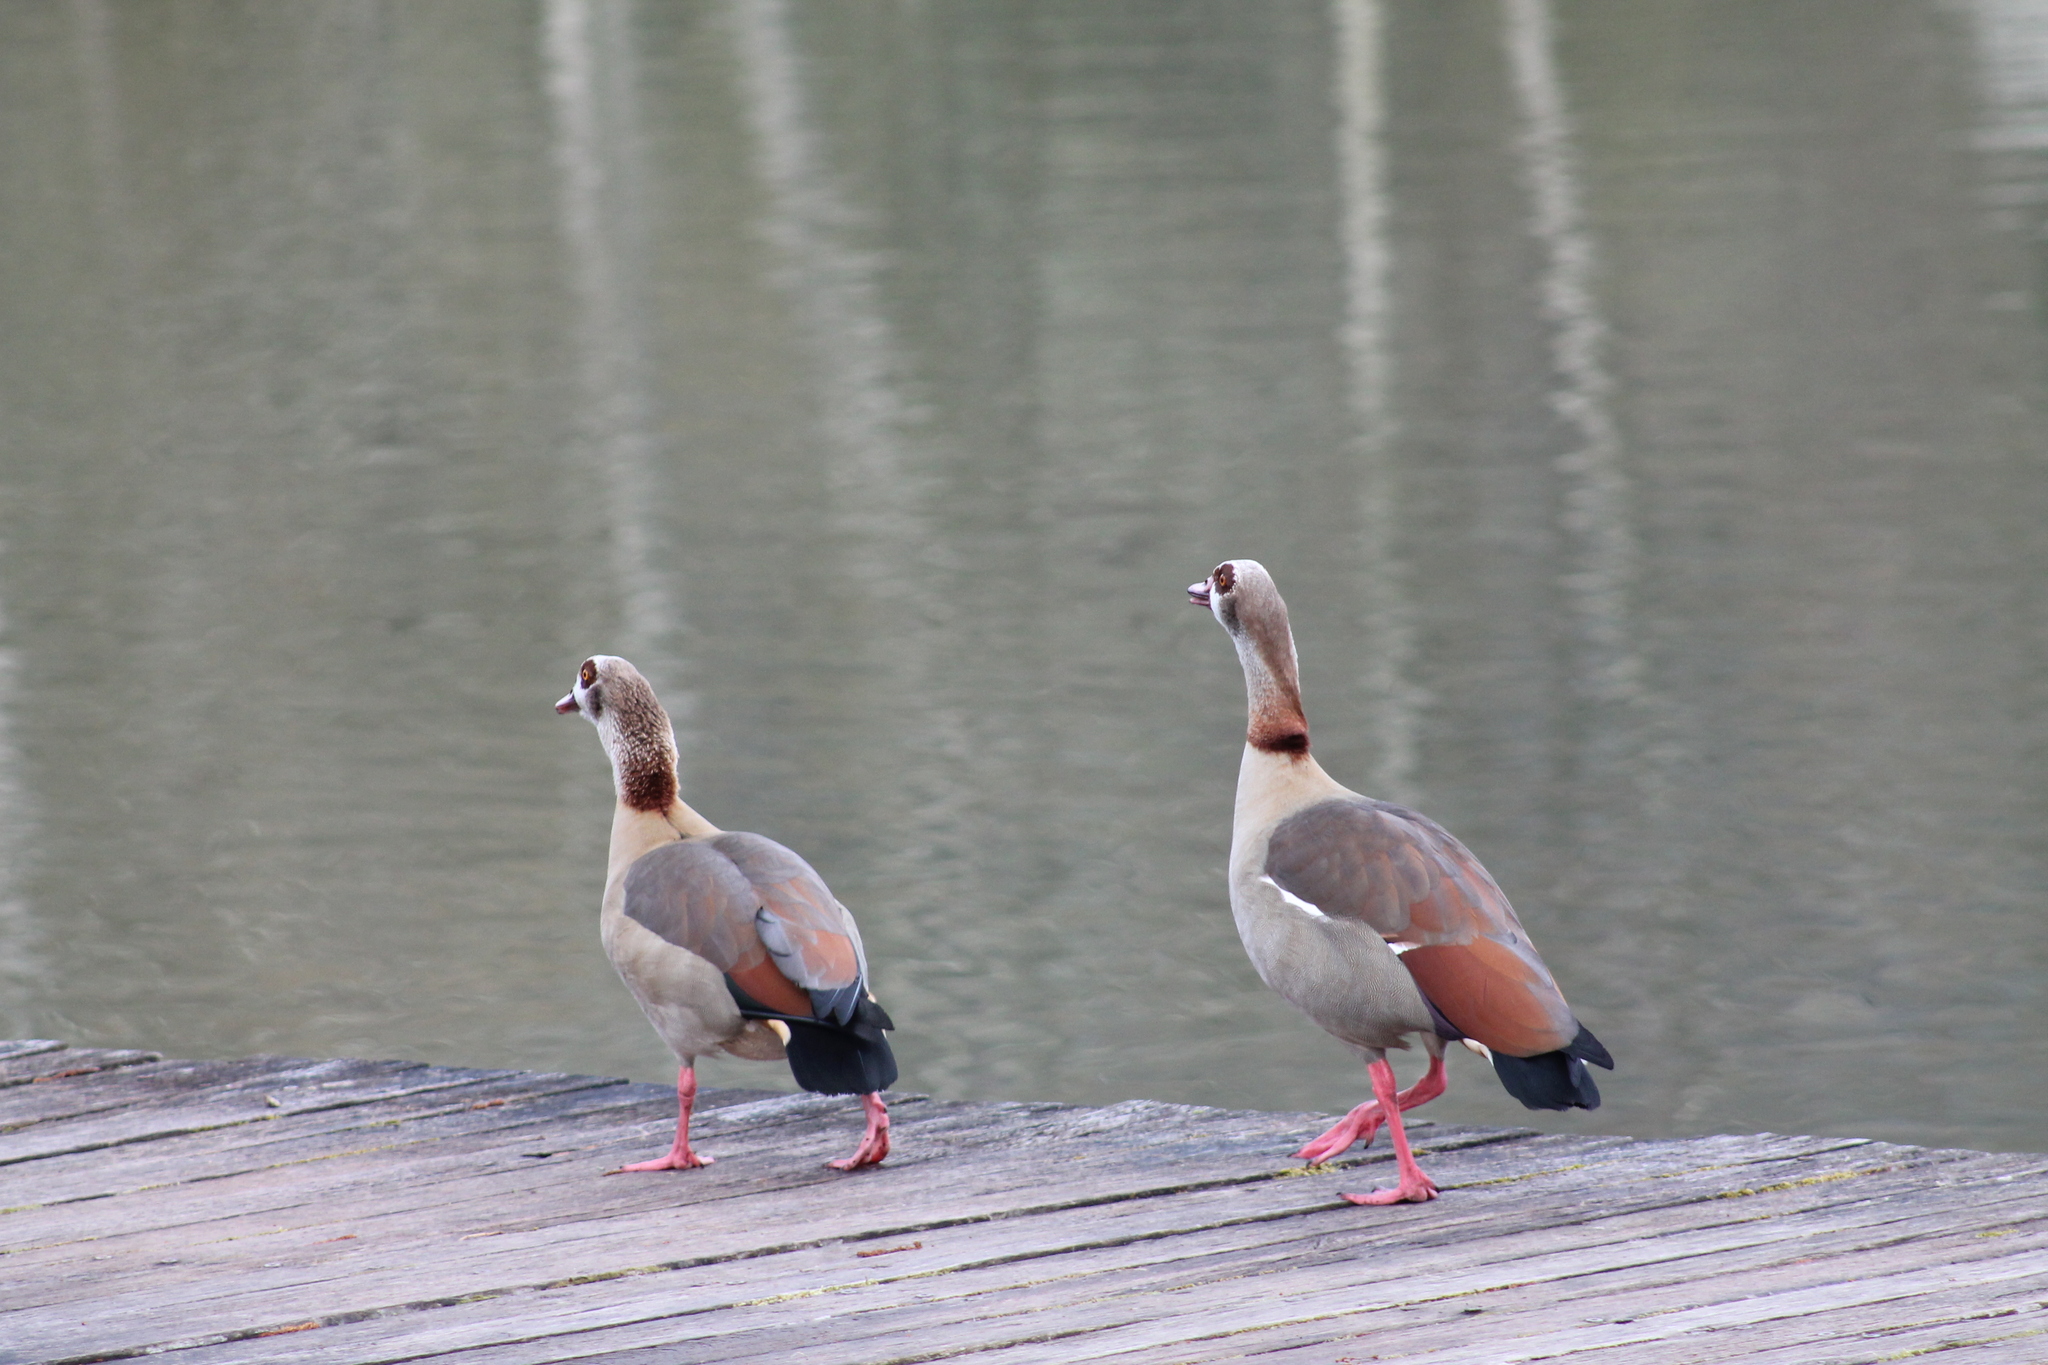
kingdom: Animalia
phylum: Chordata
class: Aves
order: Anseriformes
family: Anatidae
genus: Alopochen
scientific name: Alopochen aegyptiaca
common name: Egyptian goose
